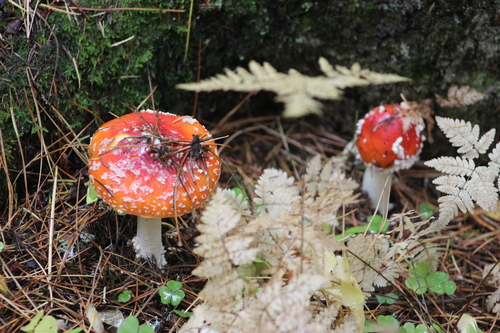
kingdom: Fungi
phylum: Basidiomycota
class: Agaricomycetes
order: Agaricales
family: Amanitaceae
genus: Amanita
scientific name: Amanita muscaria
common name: Fly agaric
